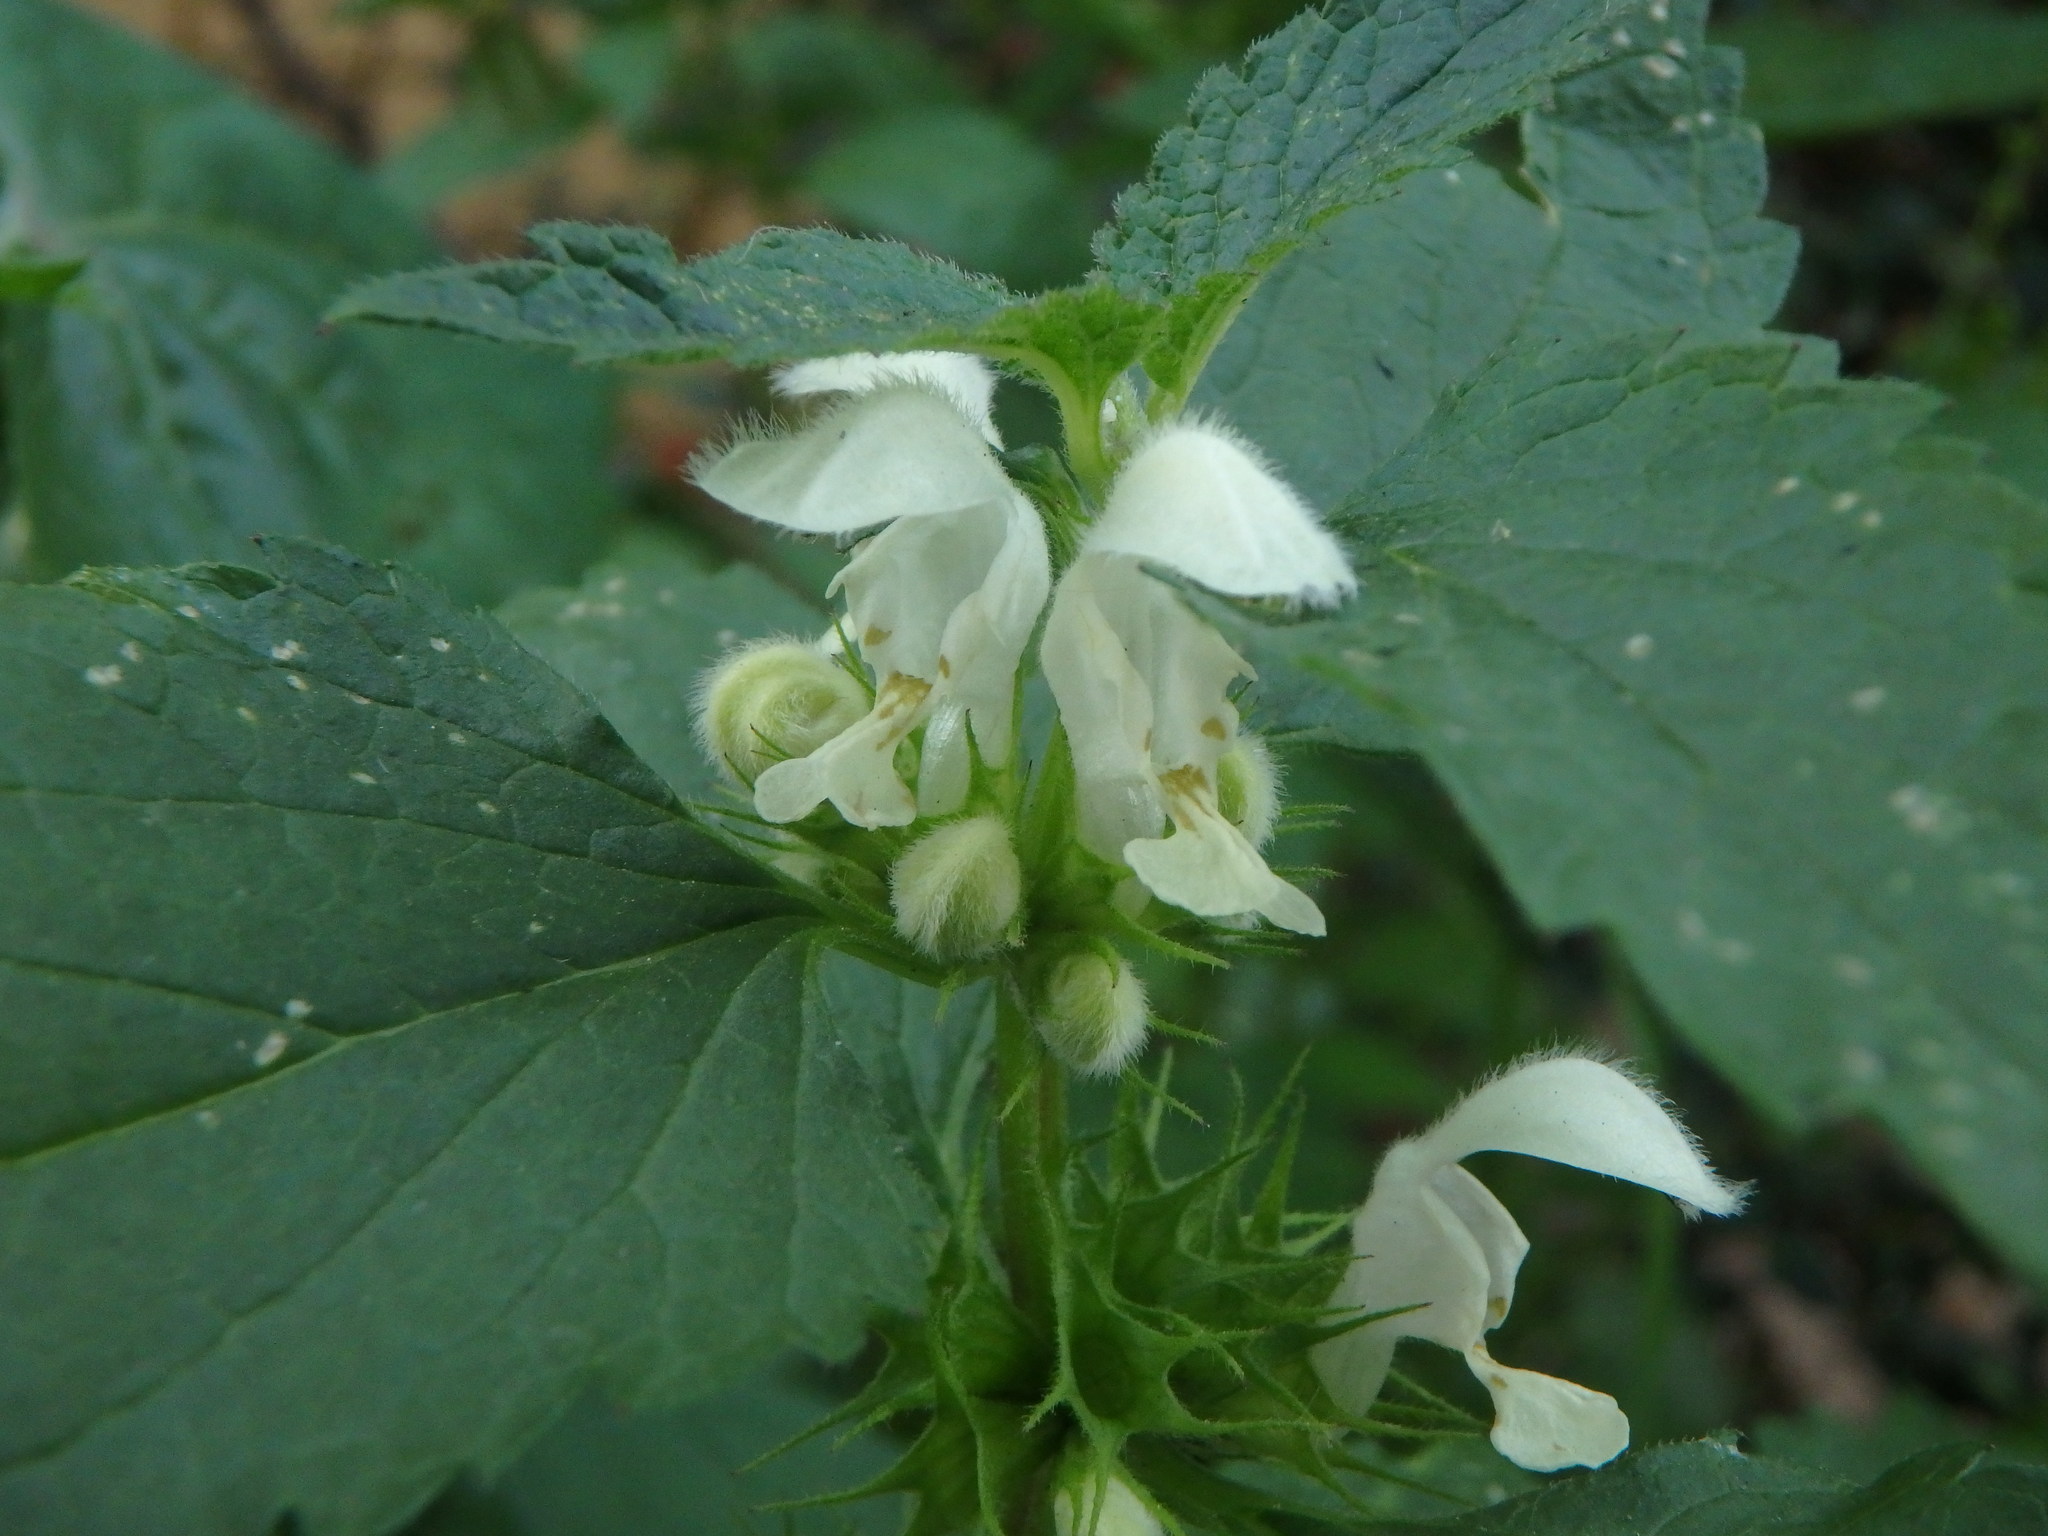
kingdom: Plantae
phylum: Tracheophyta
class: Magnoliopsida
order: Lamiales
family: Lamiaceae
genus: Lamium
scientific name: Lamium album
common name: White dead-nettle
